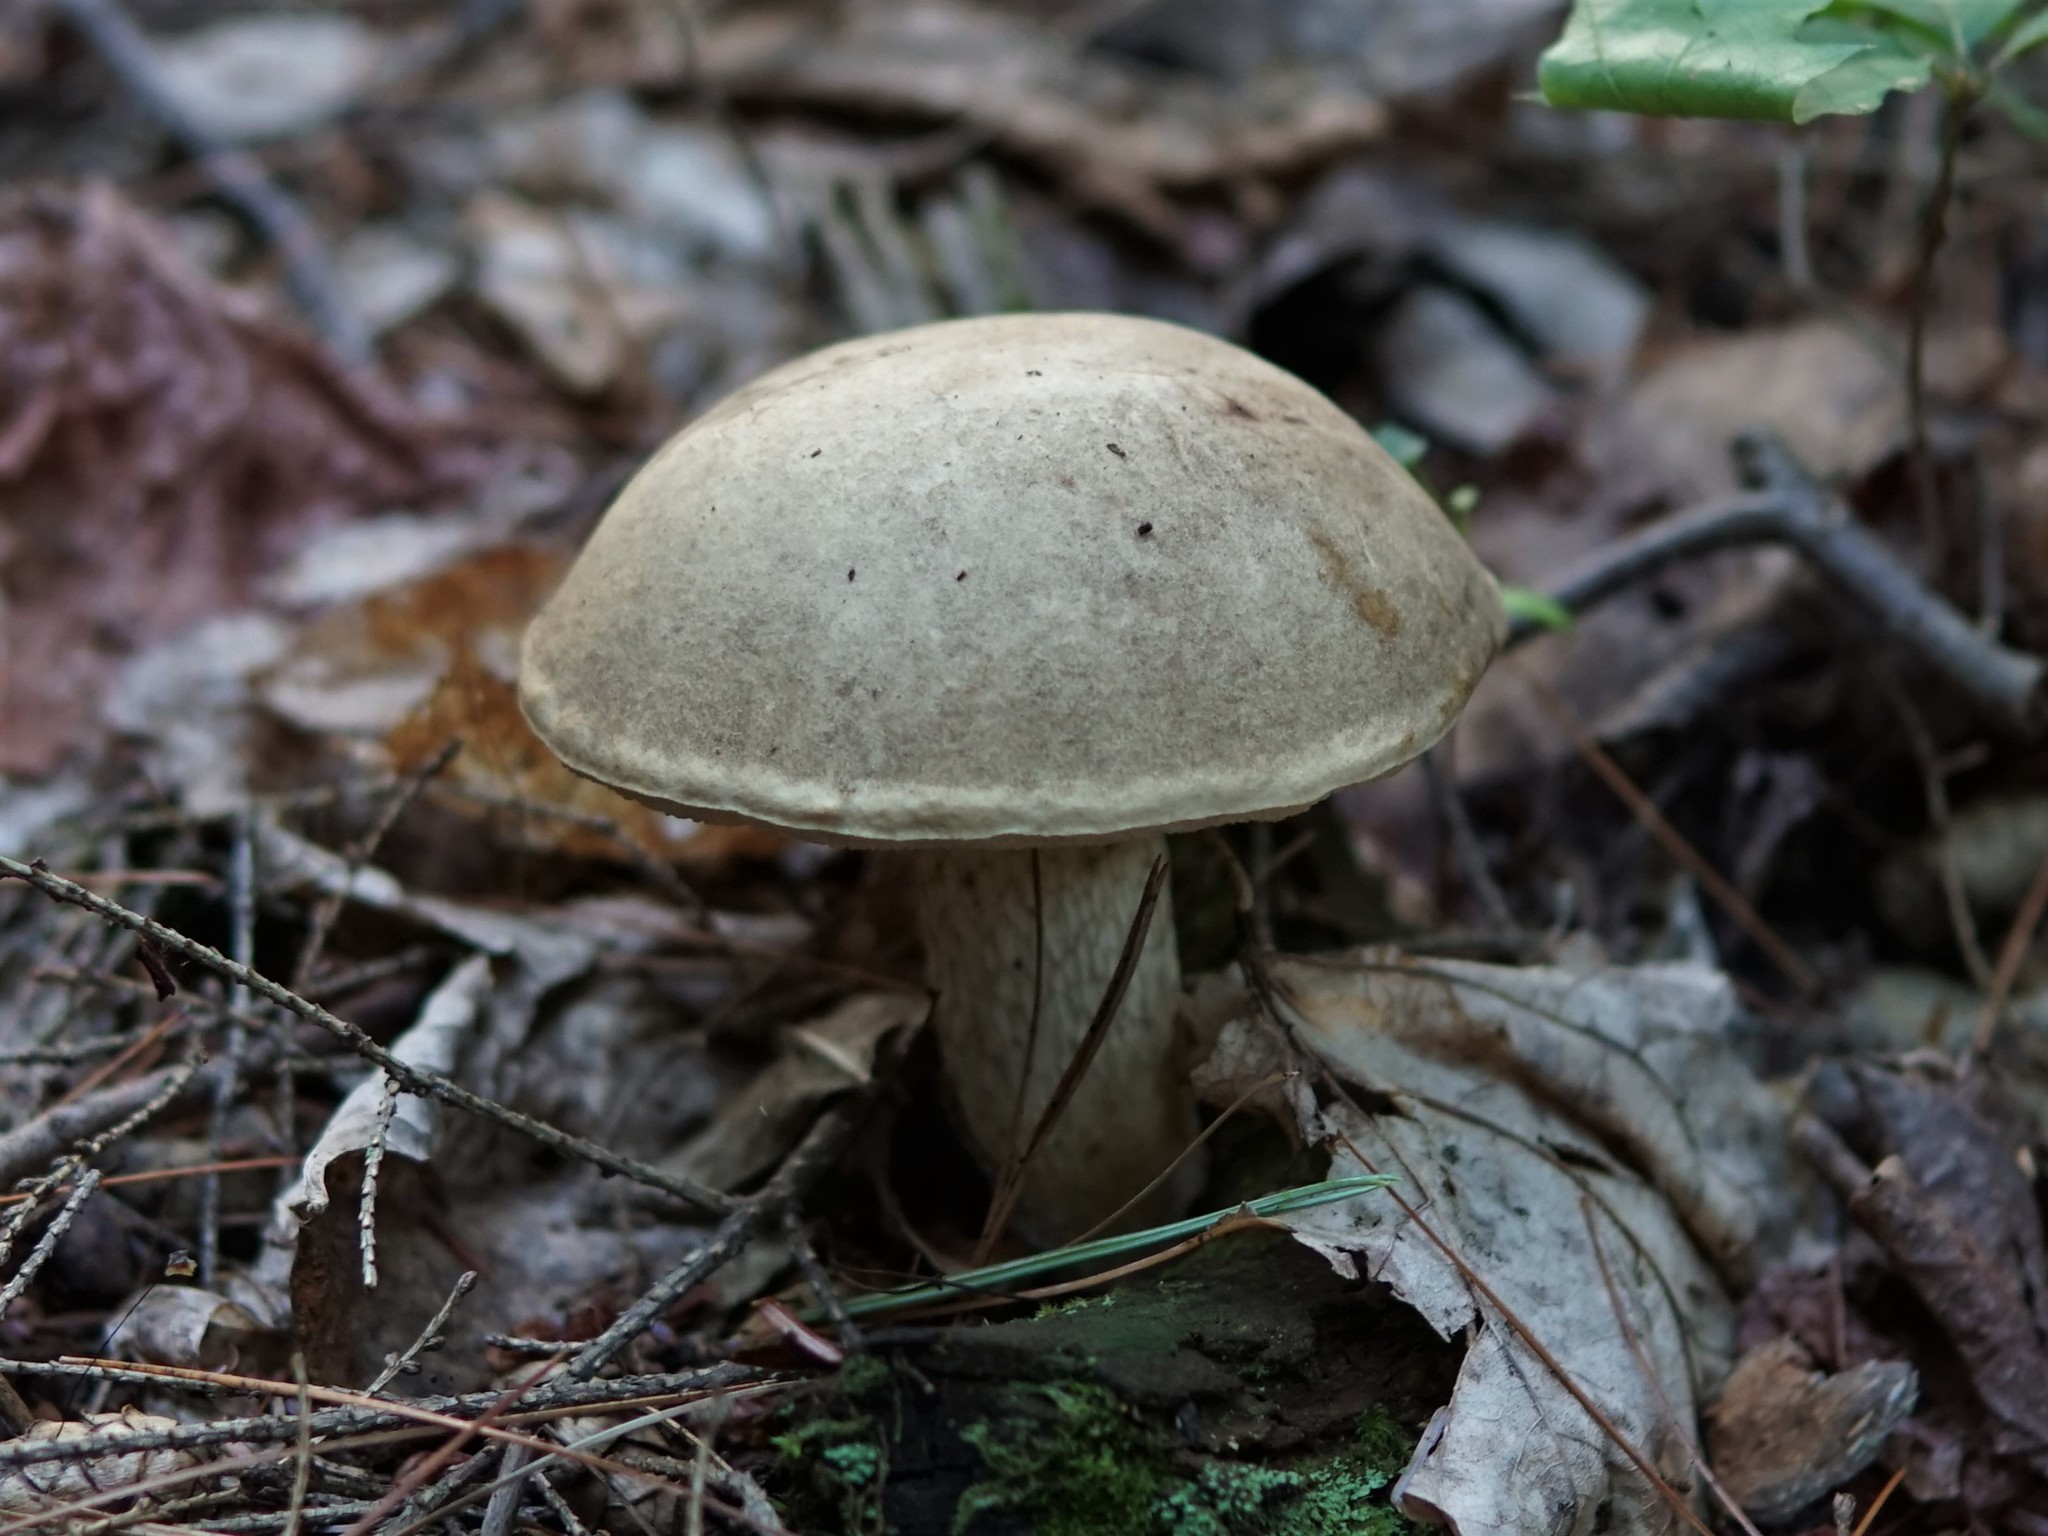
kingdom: Fungi
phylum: Basidiomycota
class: Agaricomycetes
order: Boletales
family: Boletaceae
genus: Retiboletus
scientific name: Retiboletus griseus
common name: Grey bolete
